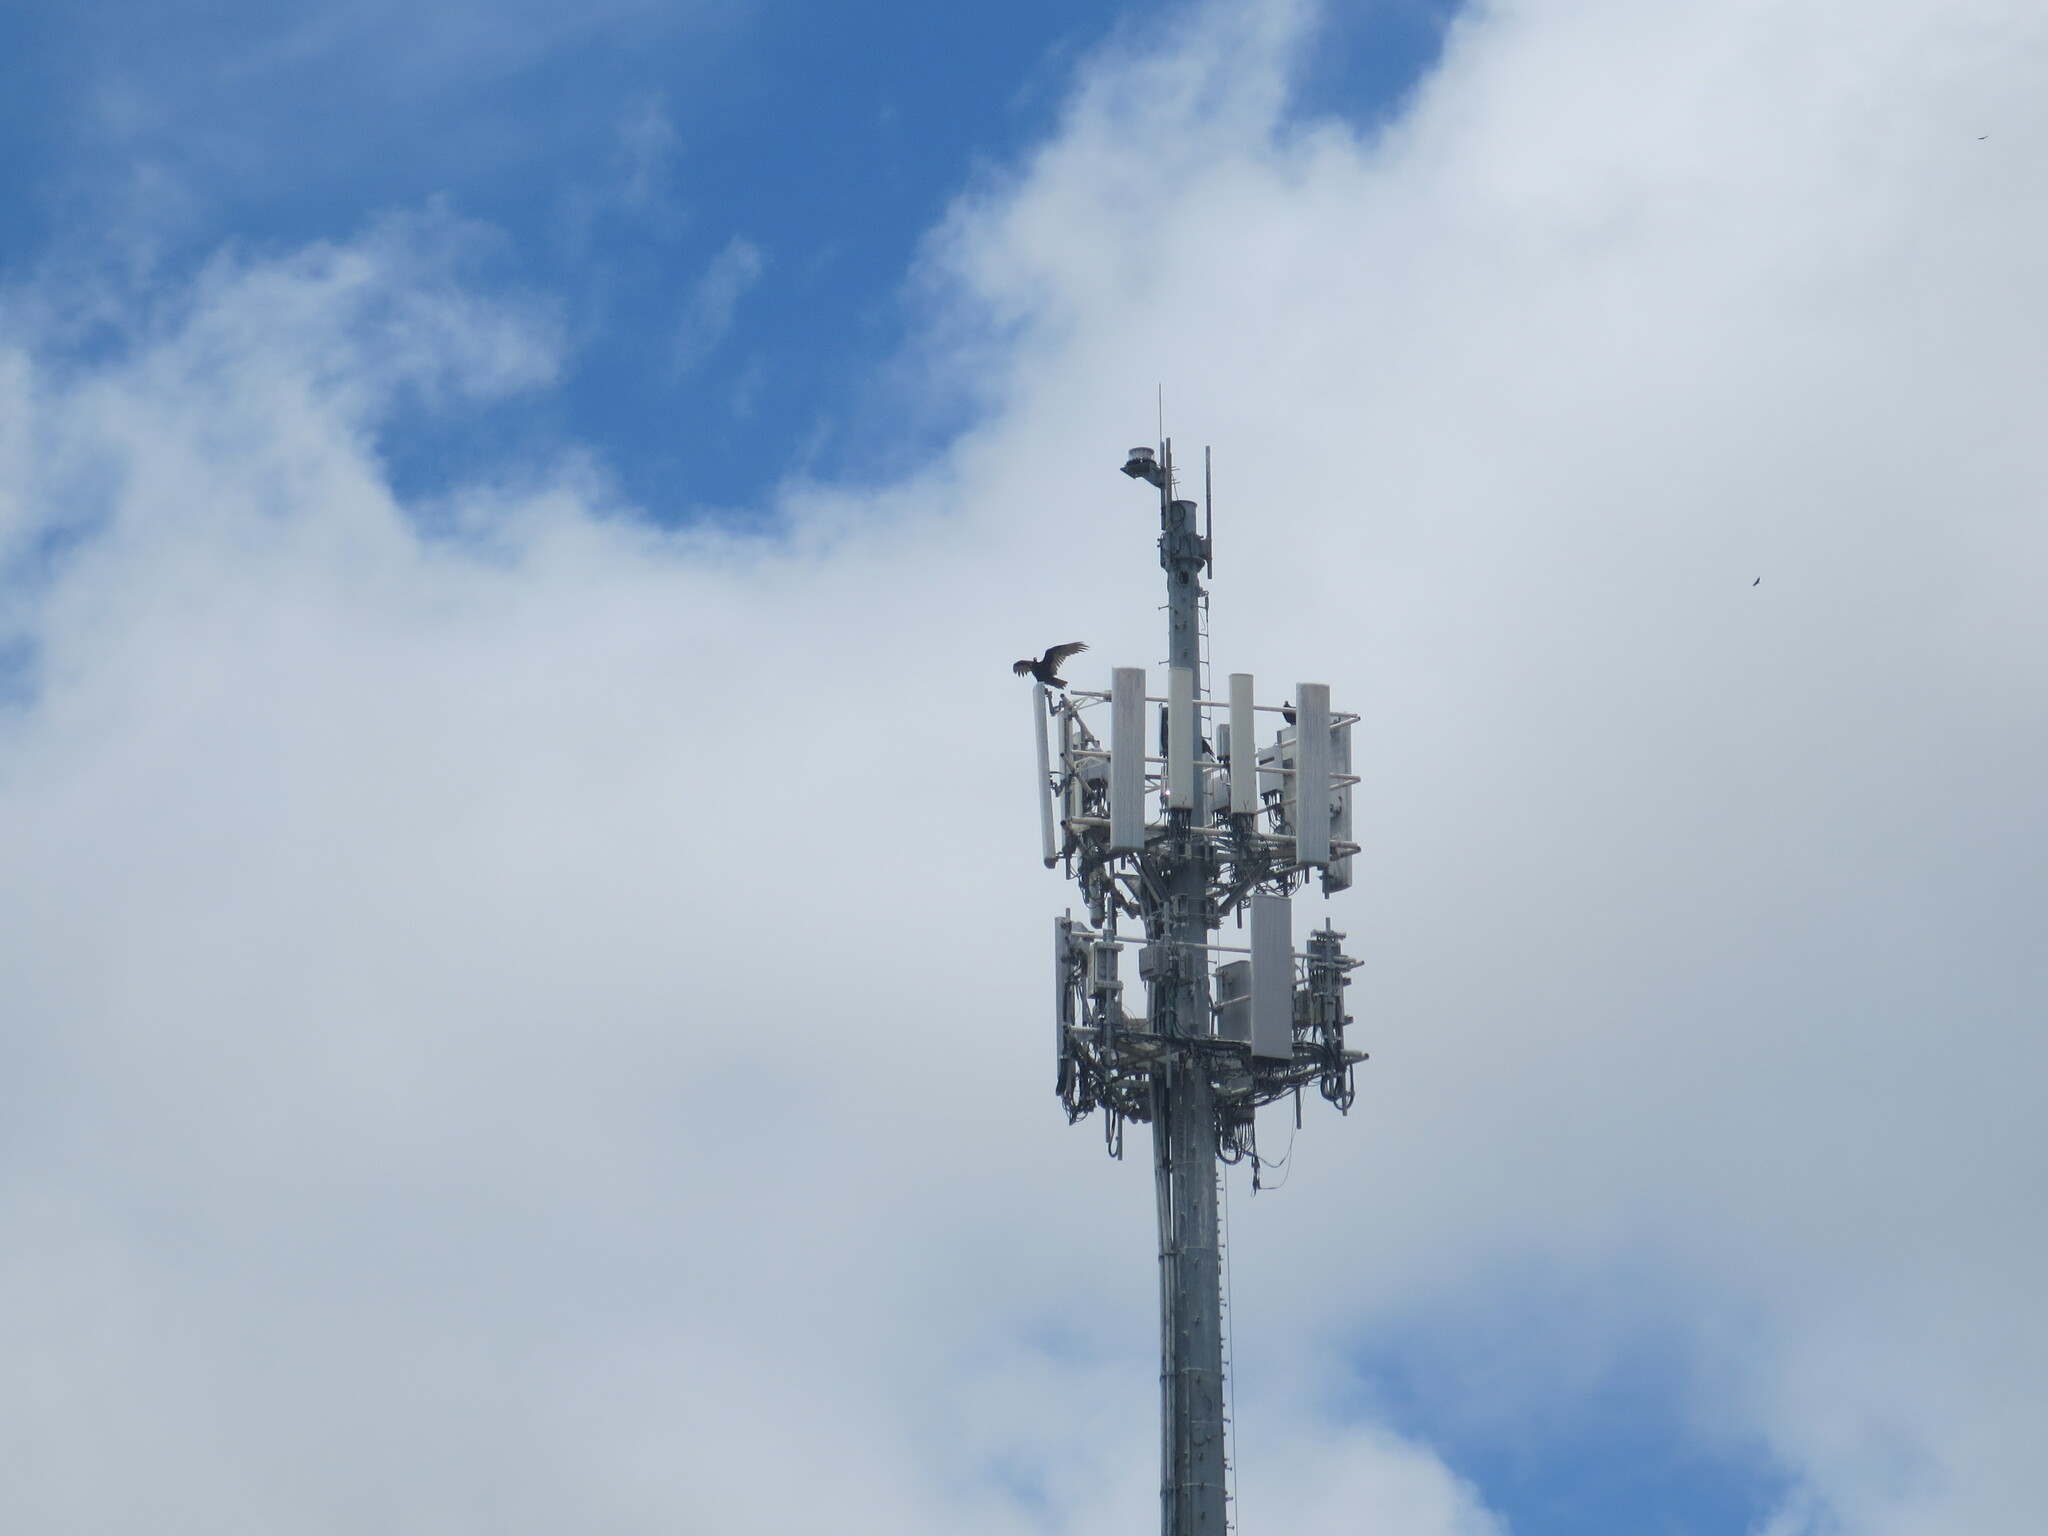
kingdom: Animalia
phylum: Chordata
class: Aves
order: Accipitriformes
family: Cathartidae
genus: Cathartes
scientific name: Cathartes aura
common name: Turkey vulture
